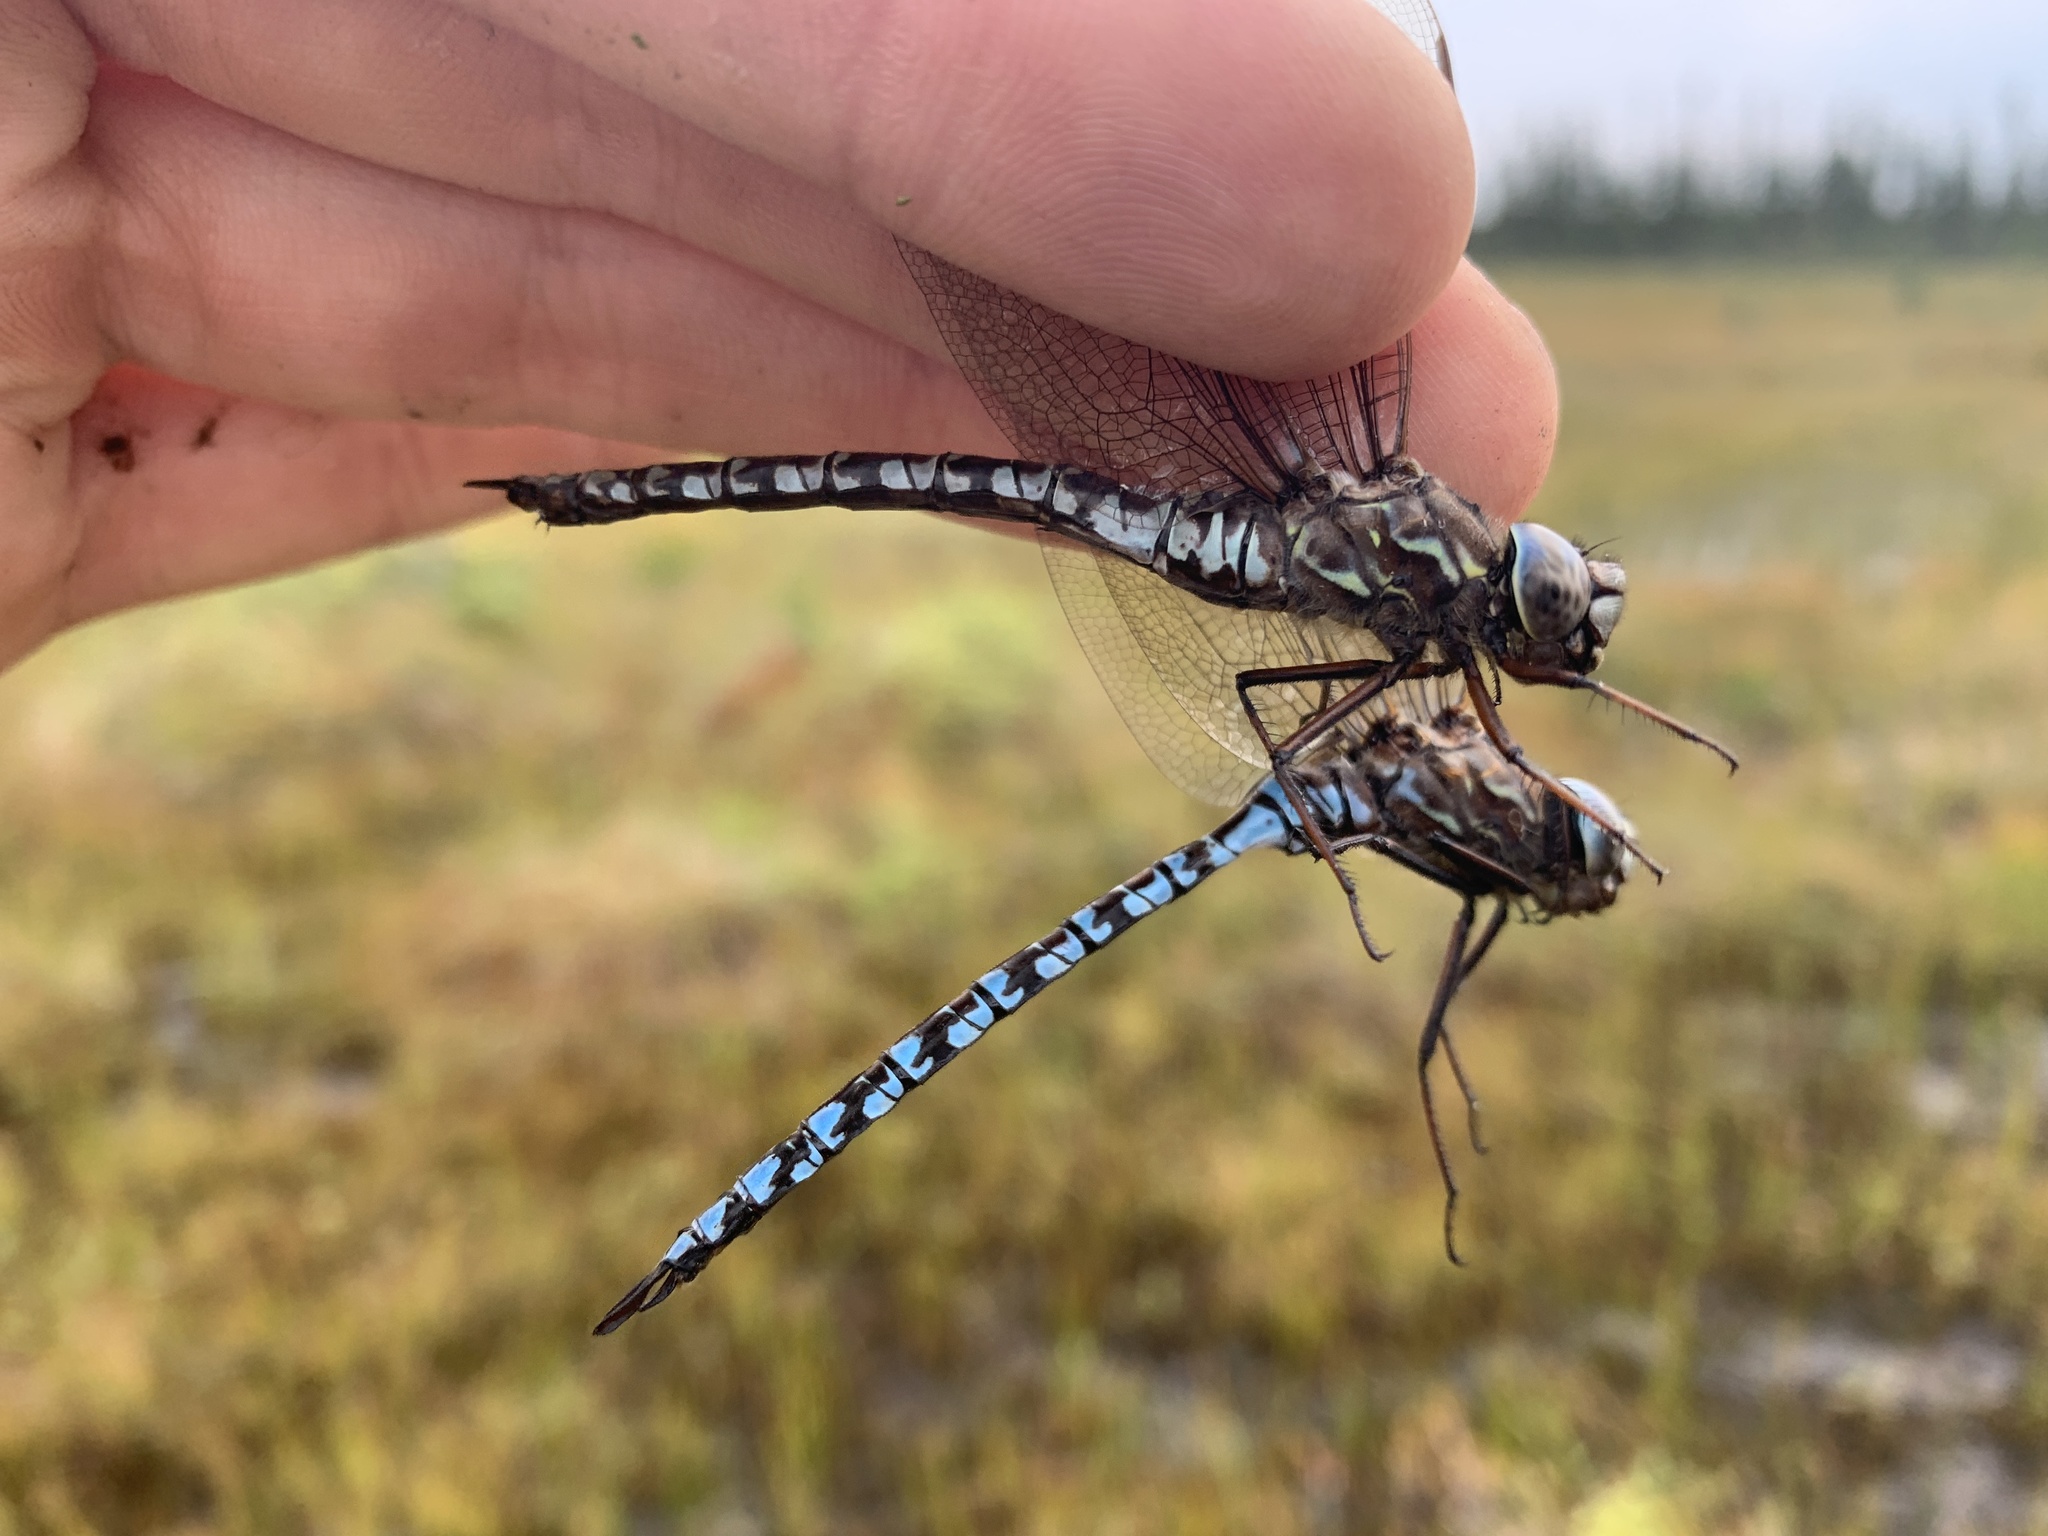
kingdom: Animalia
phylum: Arthropoda
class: Insecta
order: Odonata
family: Aeshnidae
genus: Aeshna
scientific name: Aeshna sitchensis
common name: Zigzag darner
